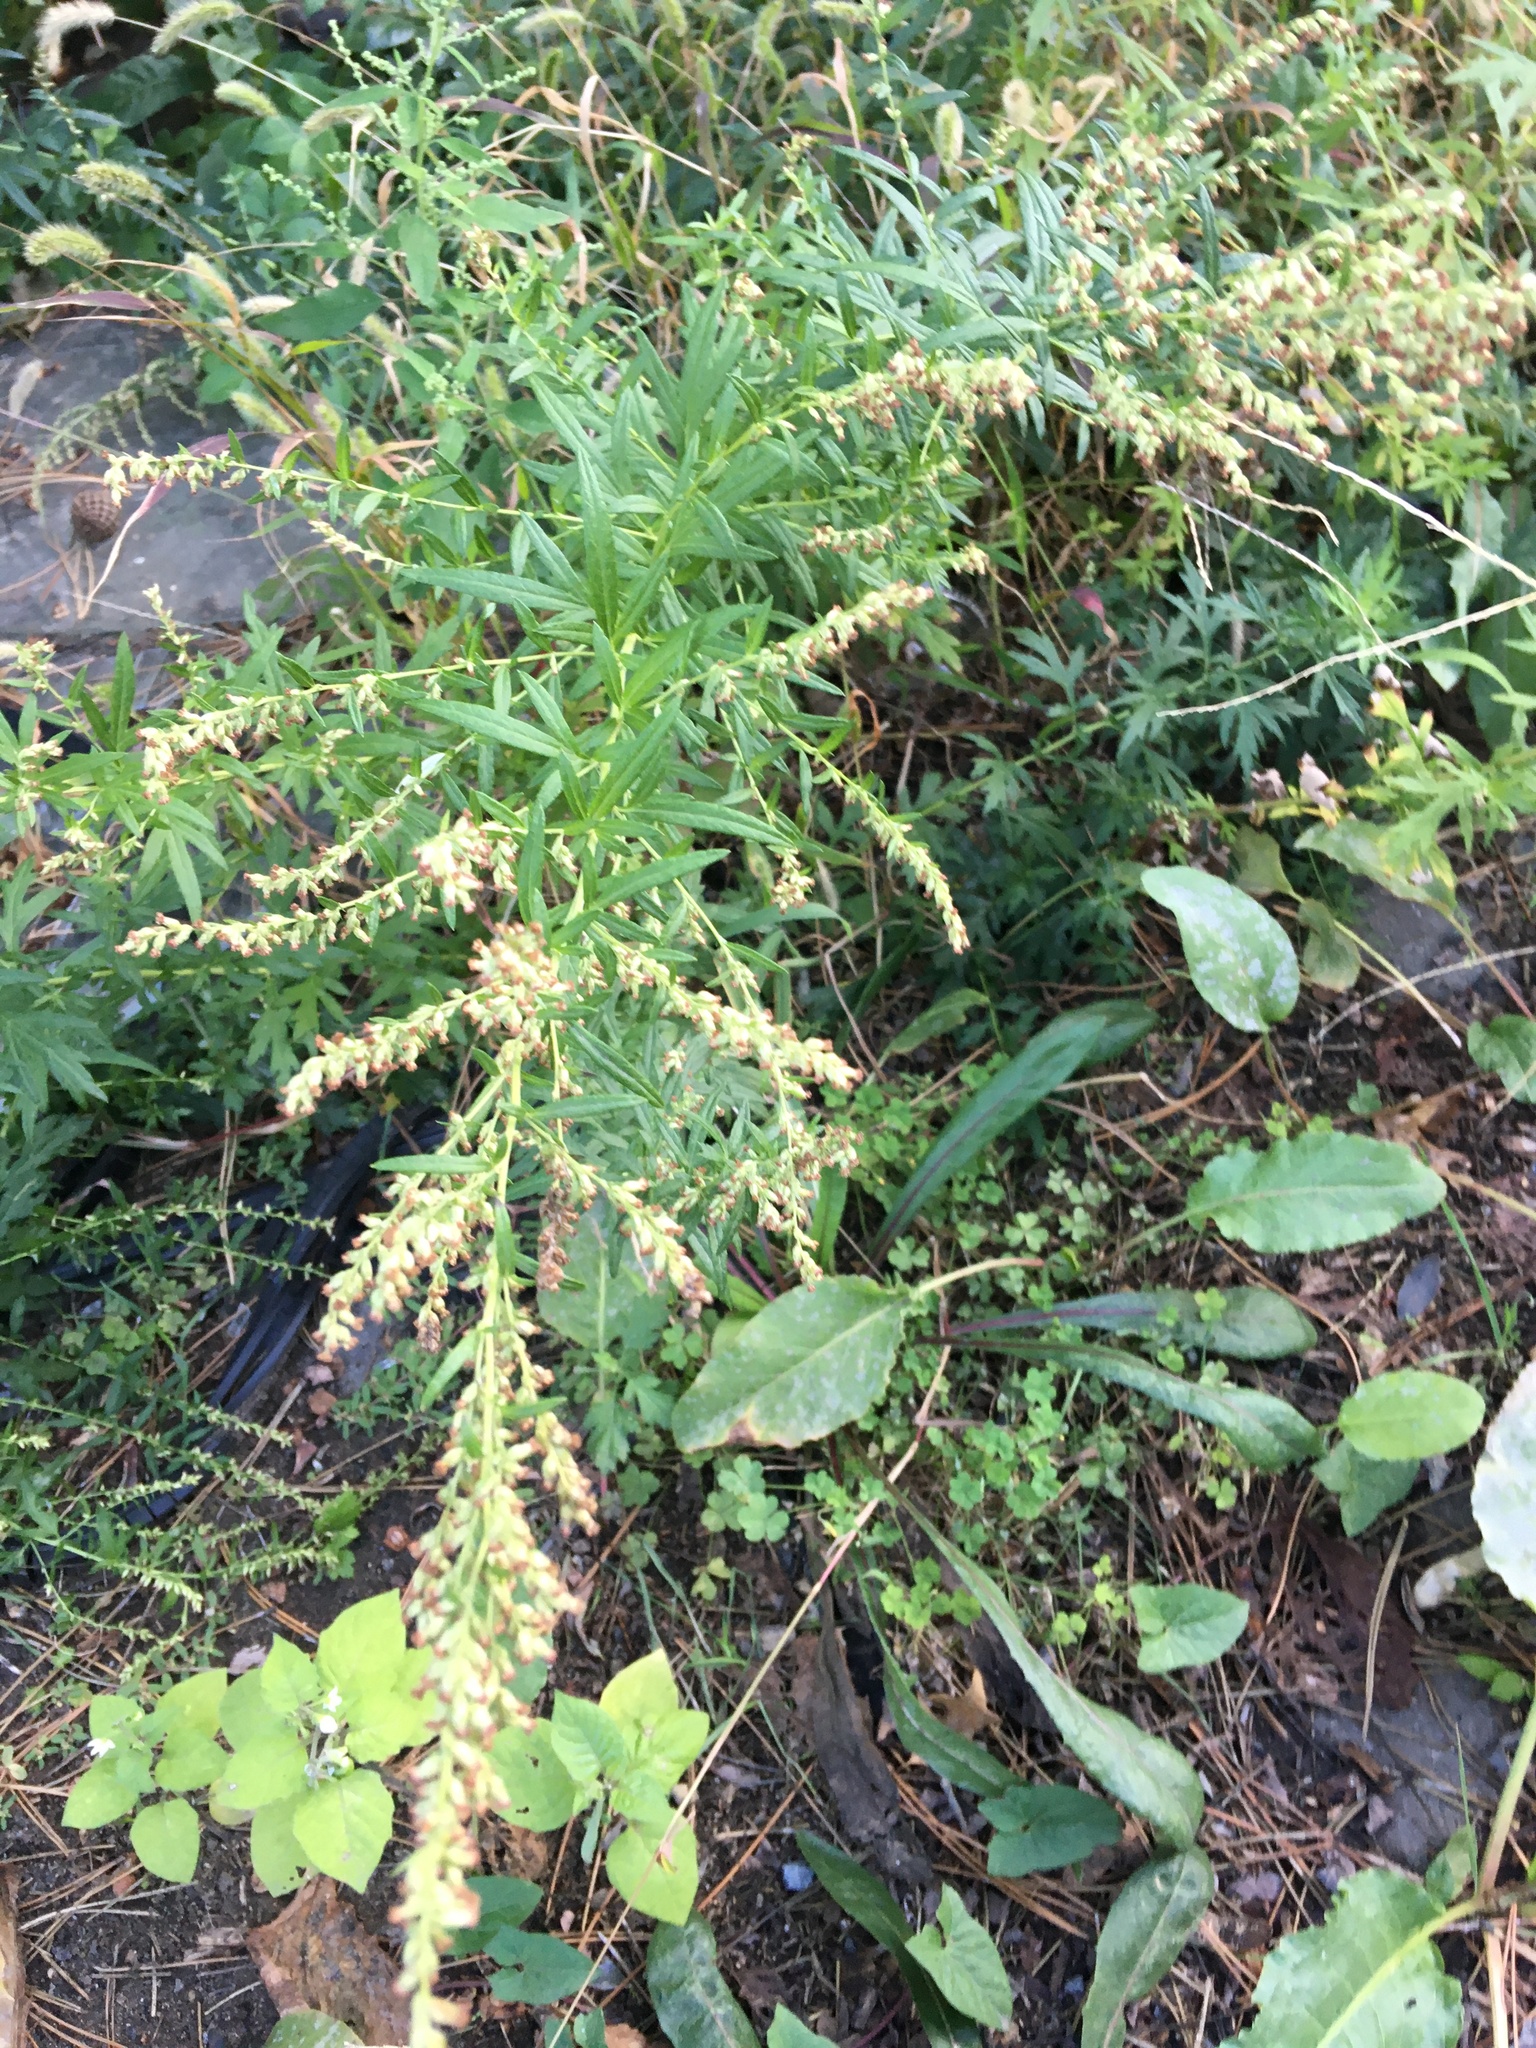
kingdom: Plantae
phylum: Tracheophyta
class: Magnoliopsida
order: Asterales
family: Asteraceae
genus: Artemisia
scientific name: Artemisia vulgaris
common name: Mugwort
